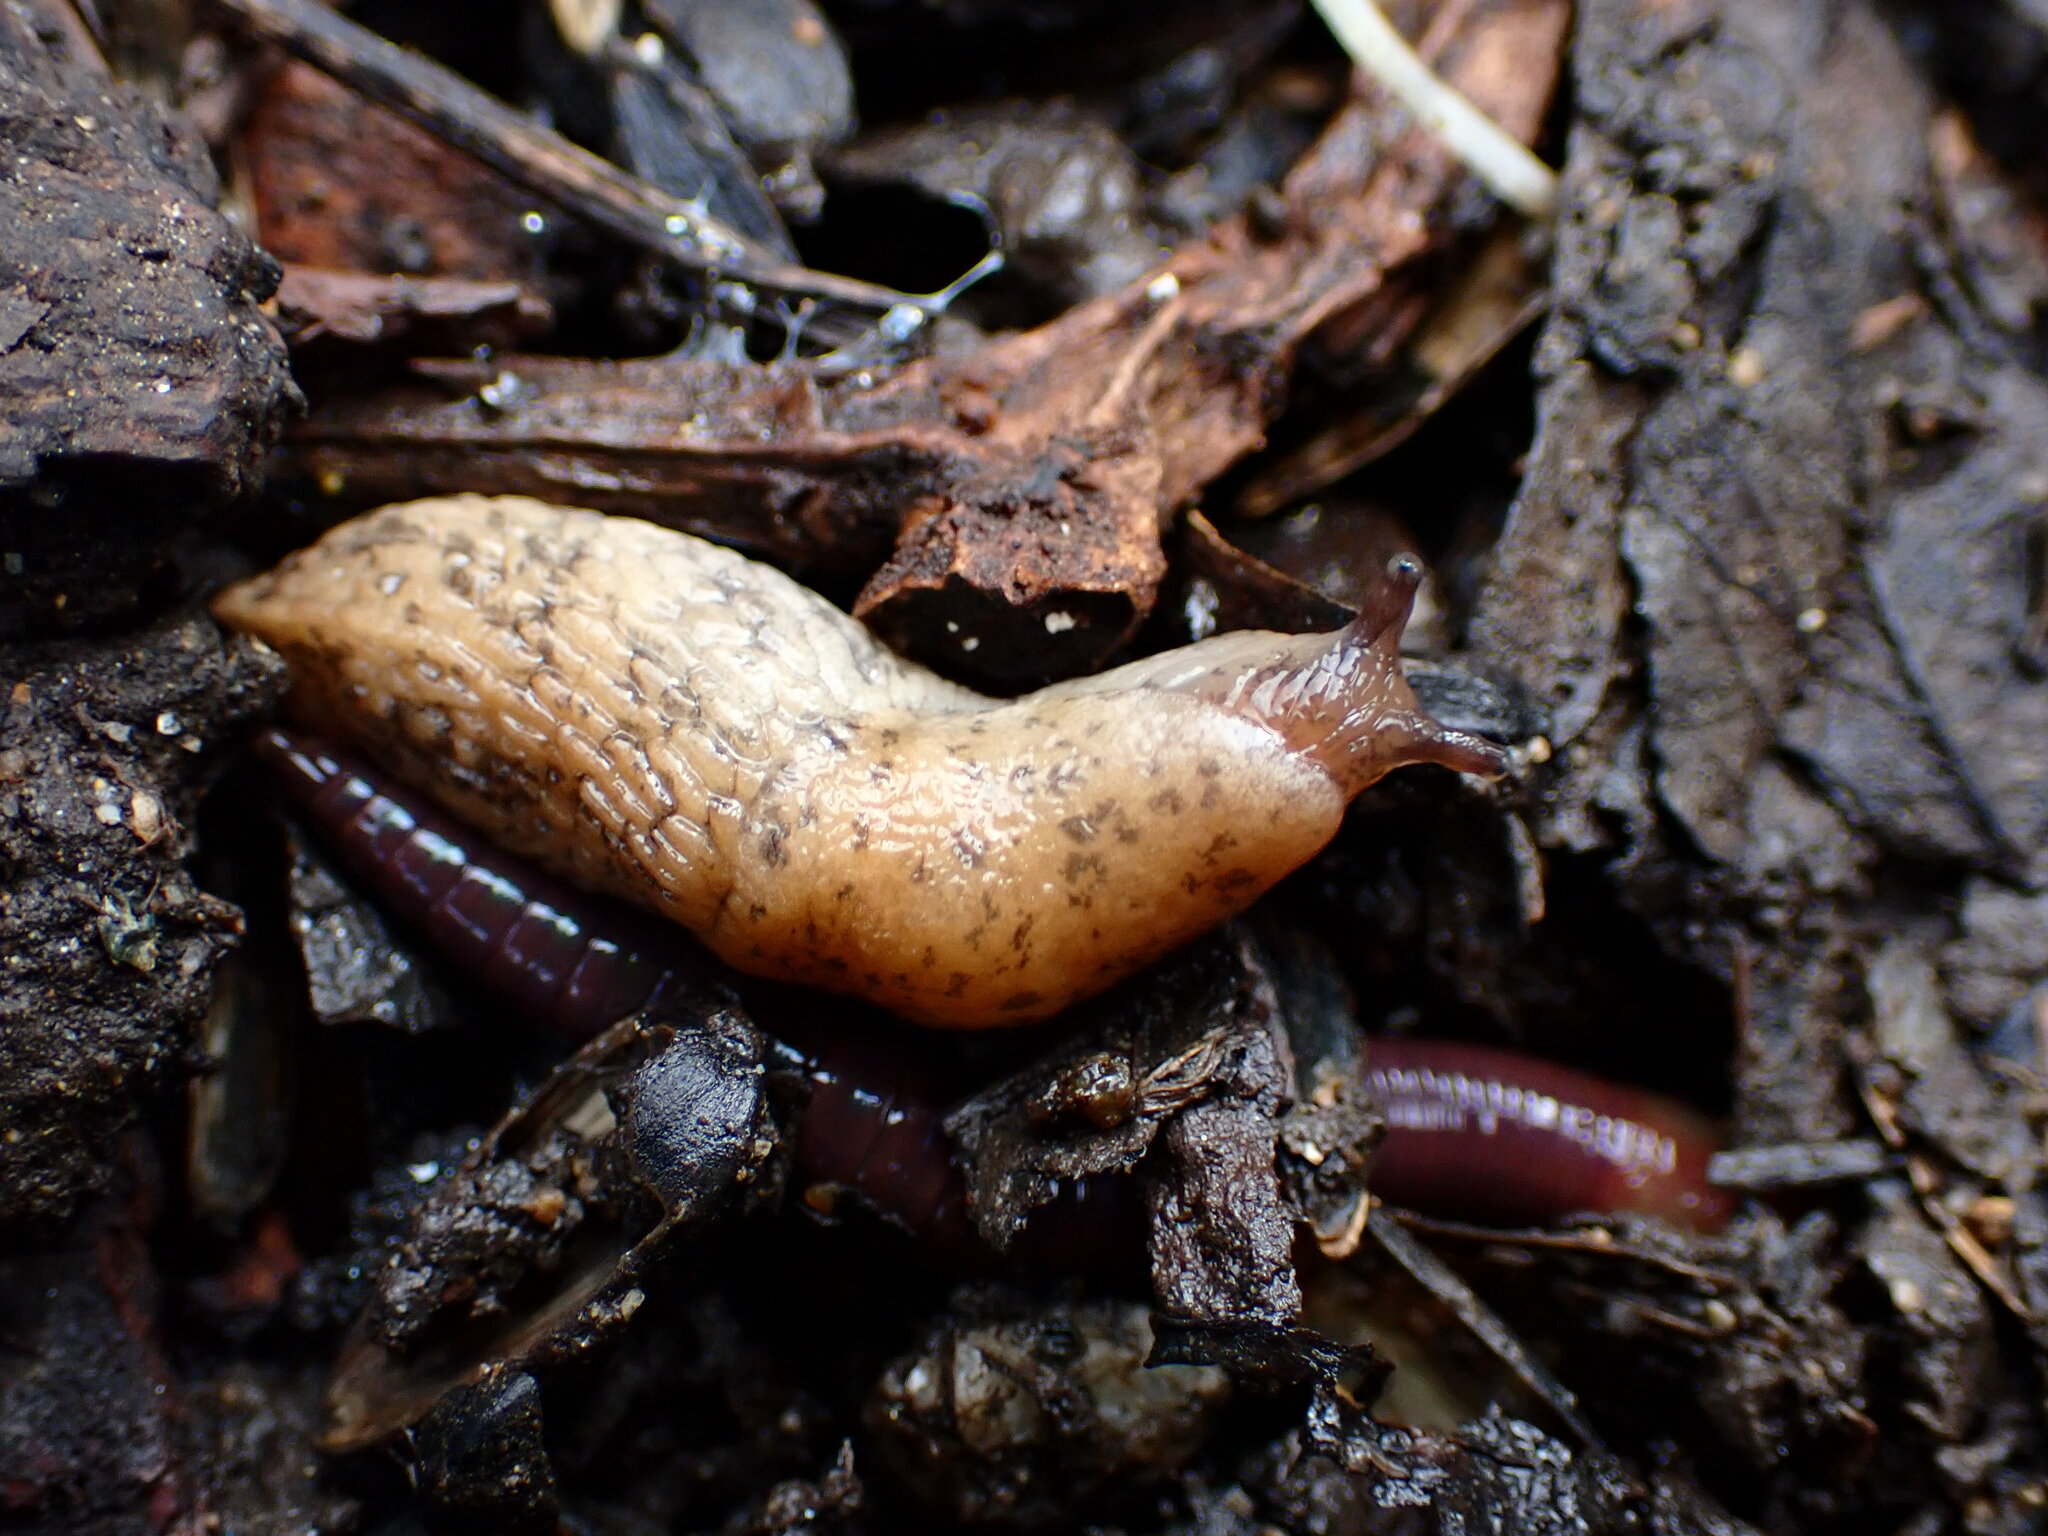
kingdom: Animalia
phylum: Mollusca
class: Gastropoda
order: Stylommatophora
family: Agriolimacidae
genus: Deroceras
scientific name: Deroceras reticulatum
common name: Gray field slug
